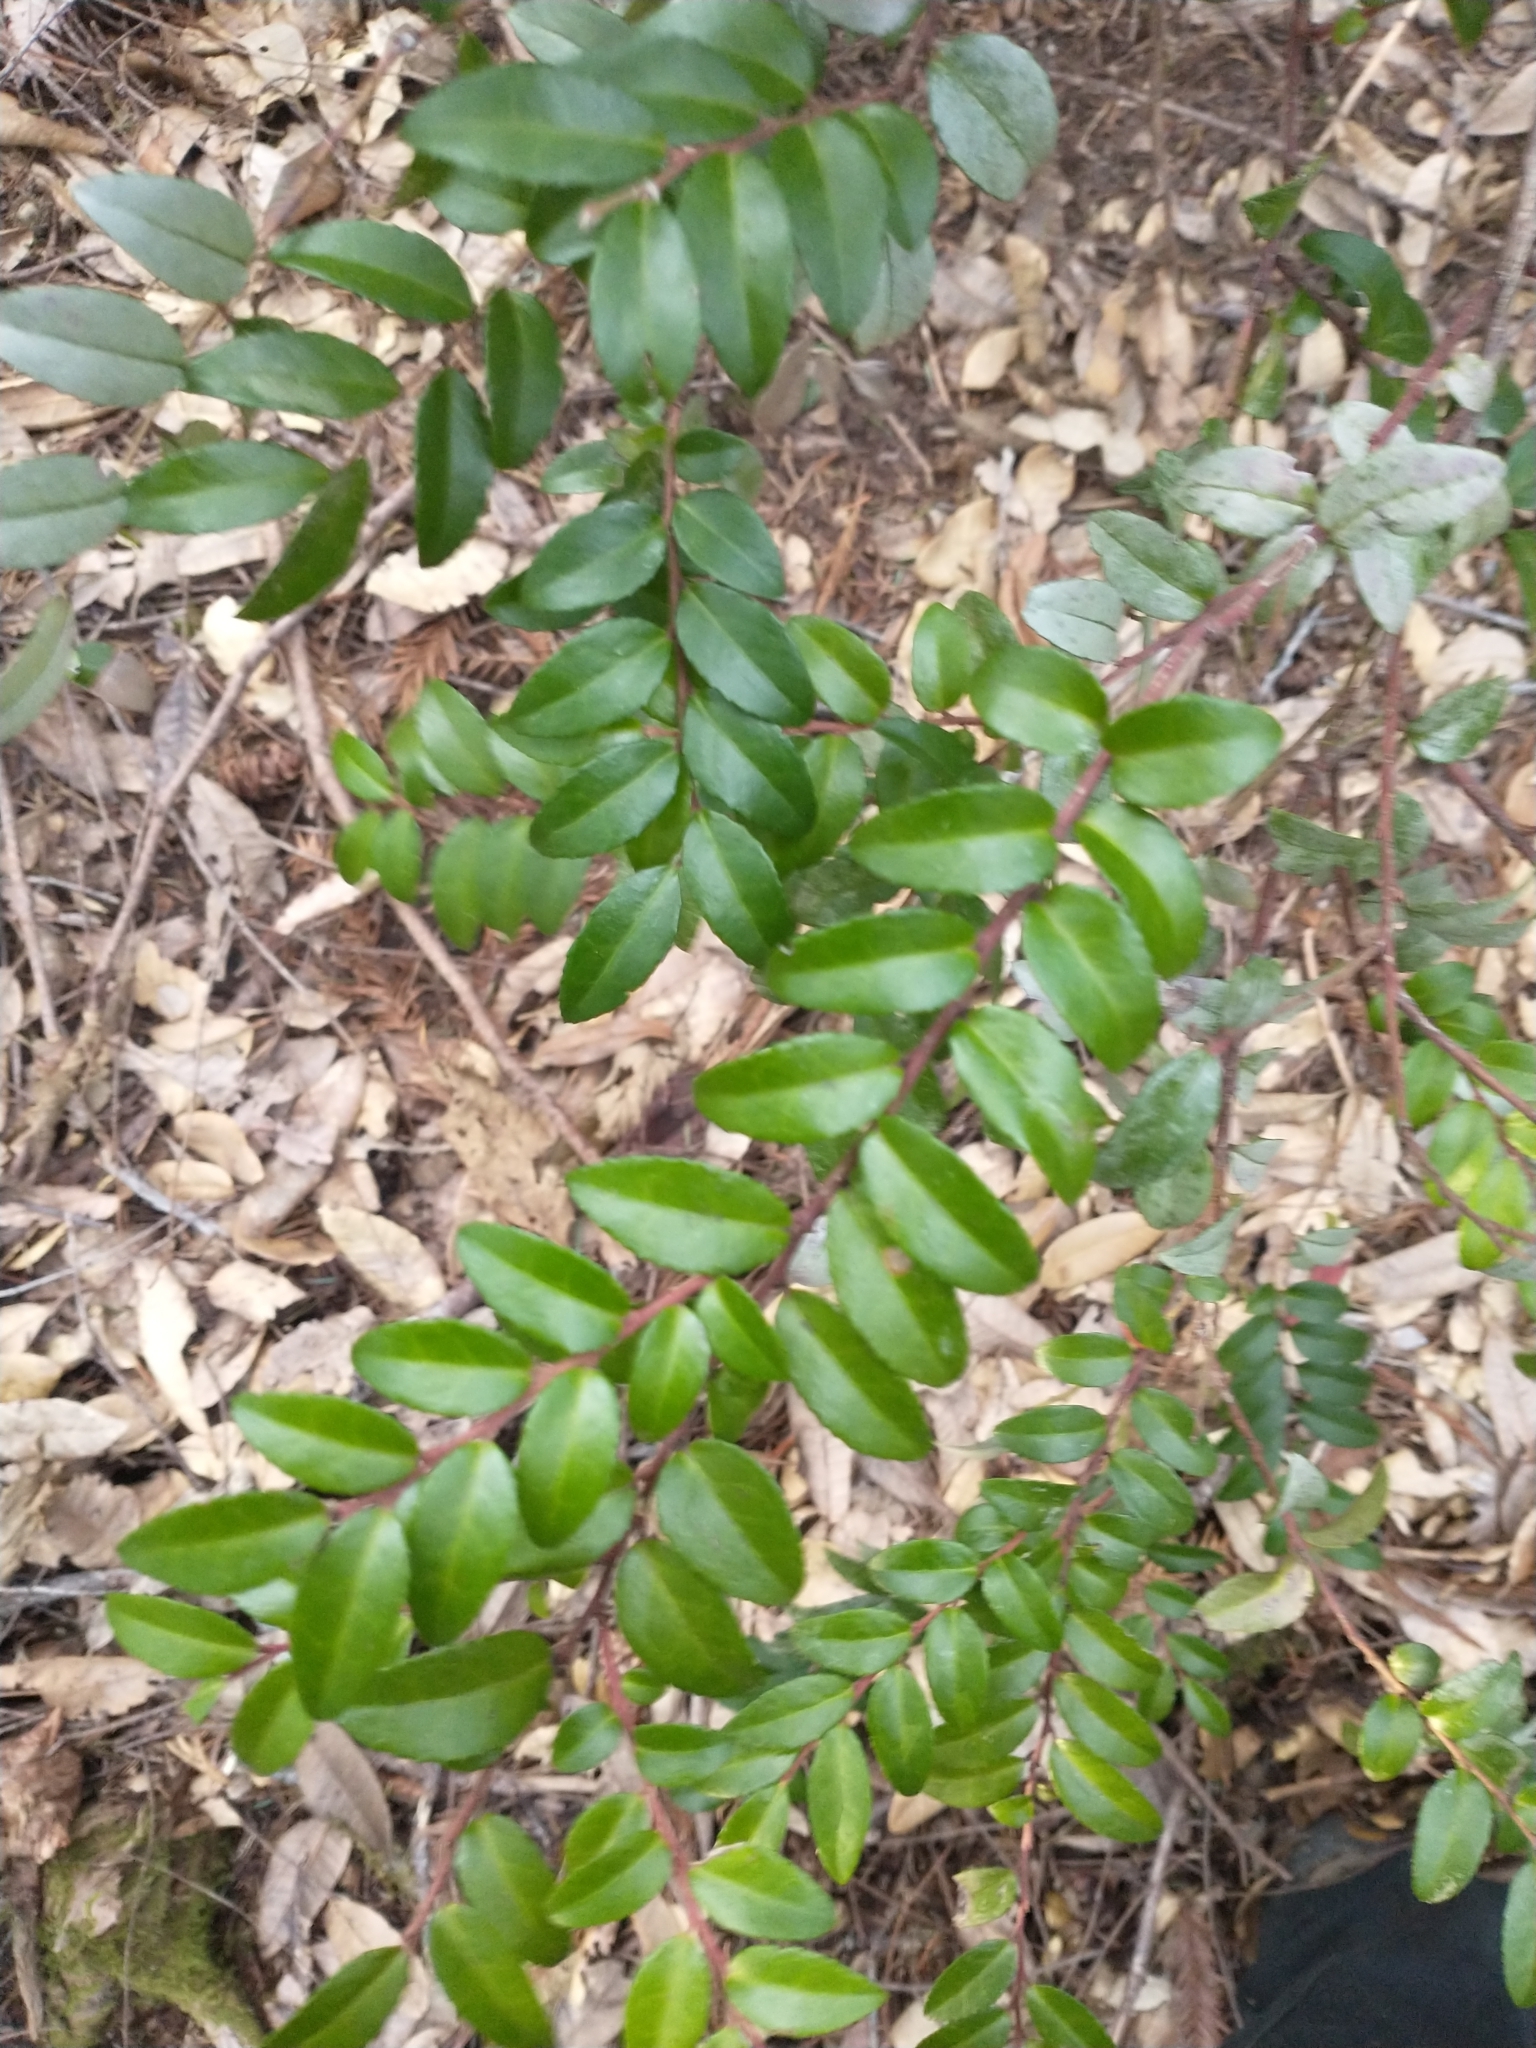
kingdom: Plantae
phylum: Tracheophyta
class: Magnoliopsida
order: Ericales
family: Ericaceae
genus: Vaccinium
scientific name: Vaccinium ovatum
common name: California-huckleberry
